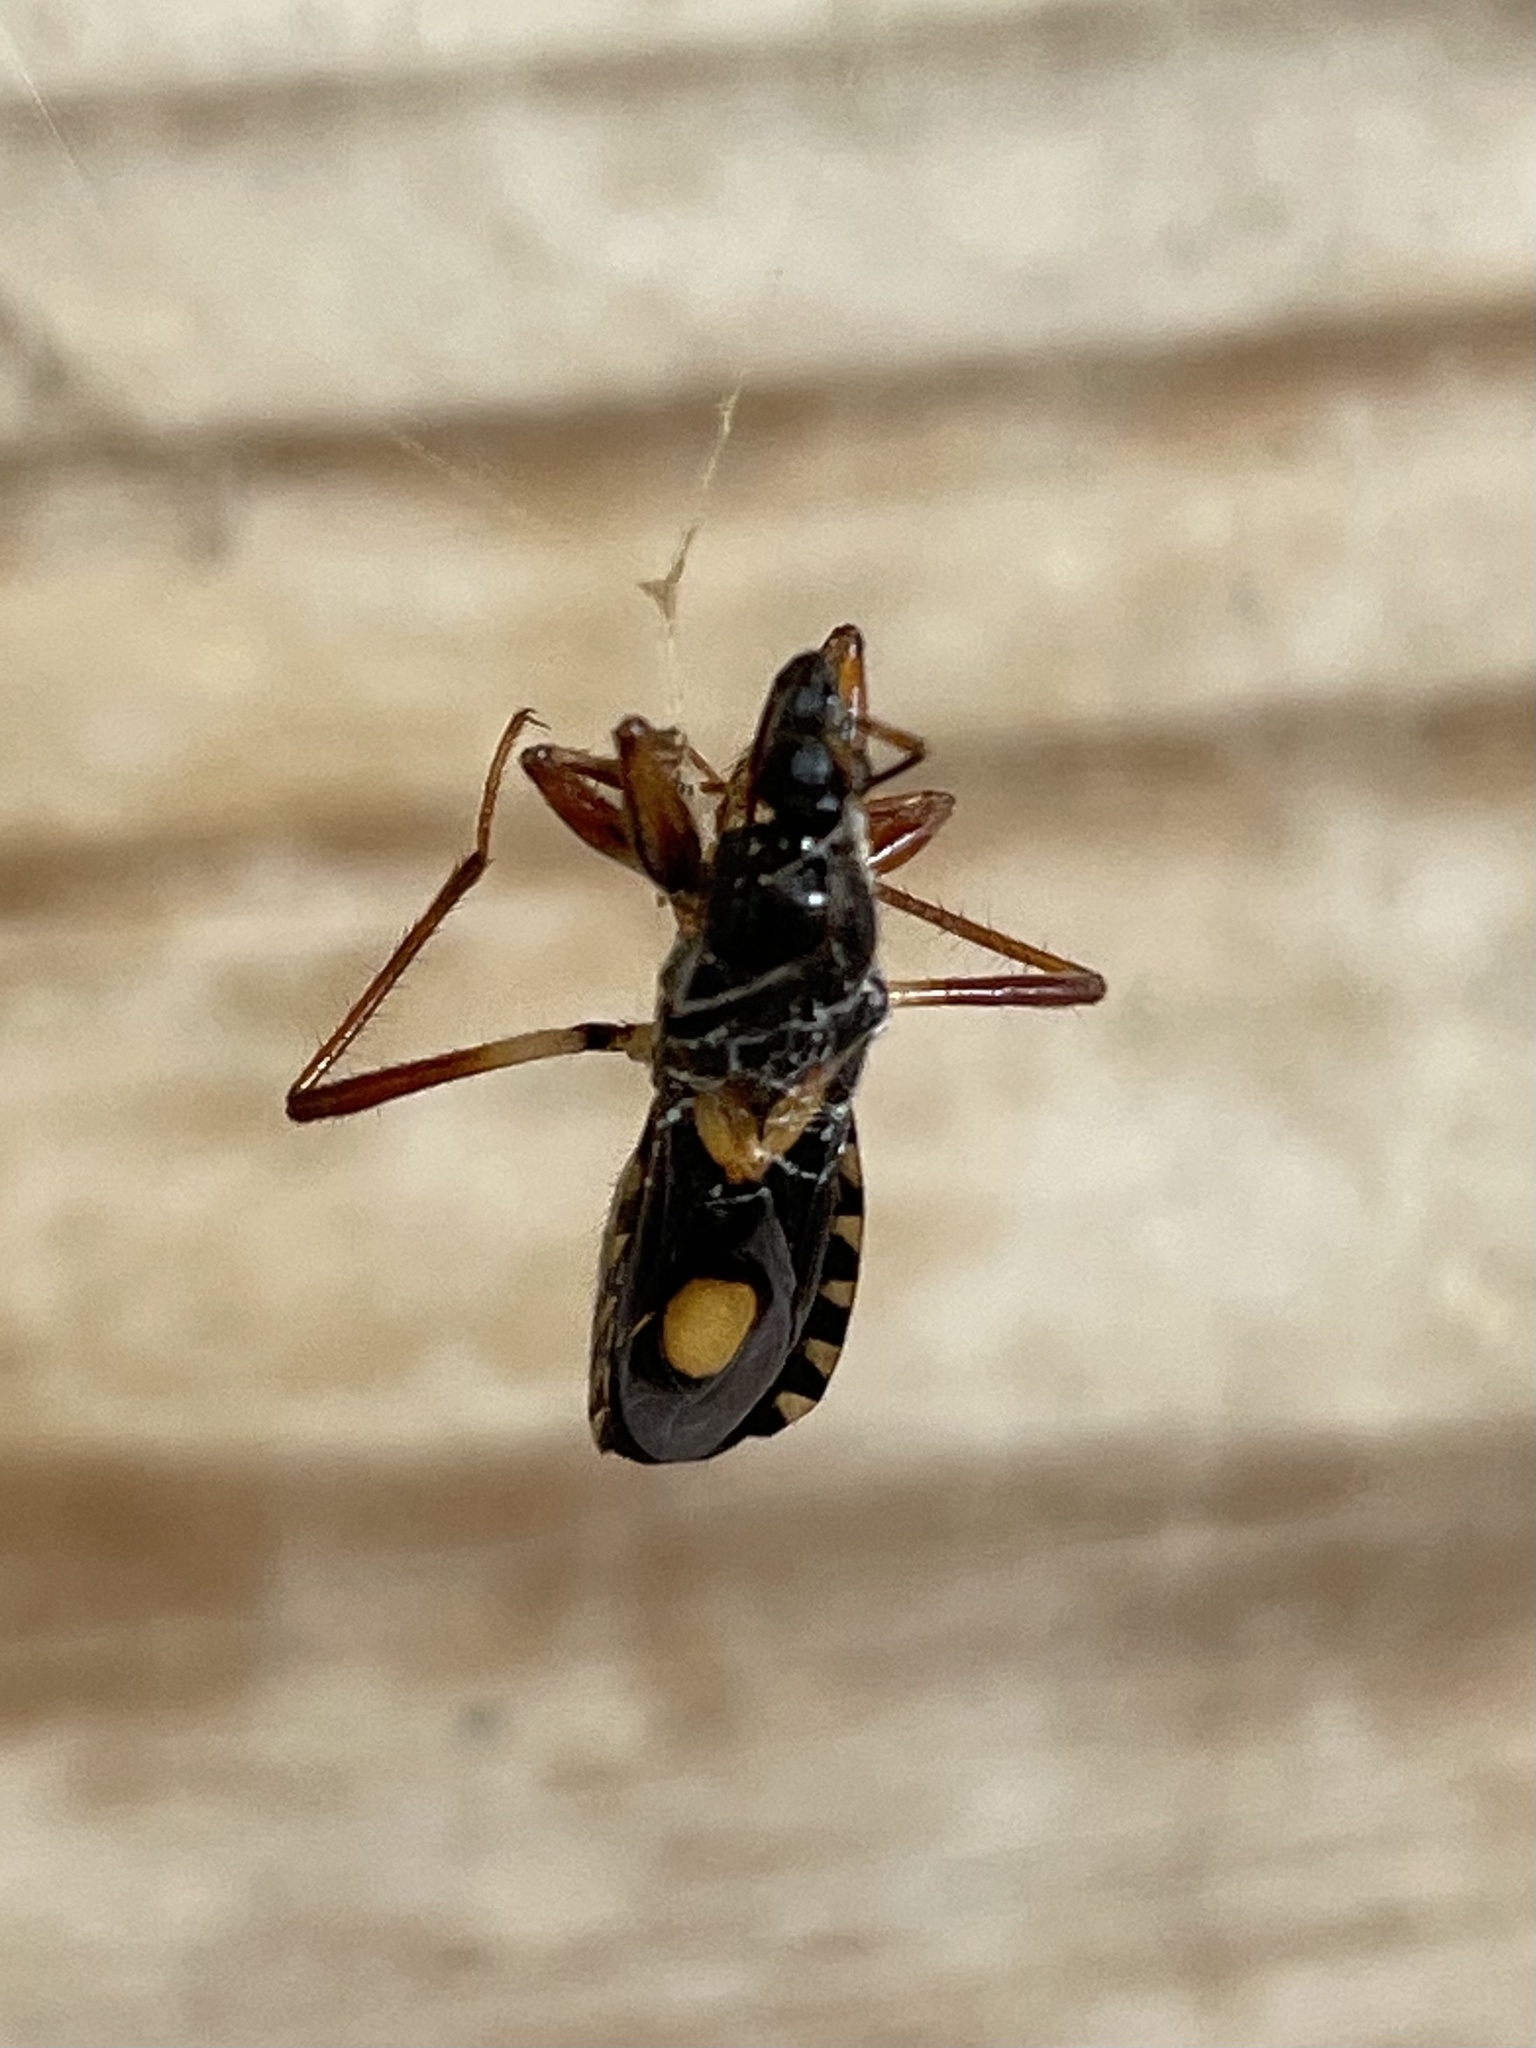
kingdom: Animalia
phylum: Arthropoda
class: Insecta
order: Hemiptera
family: Reduviidae
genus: Rasahus
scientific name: Rasahus hamatus
